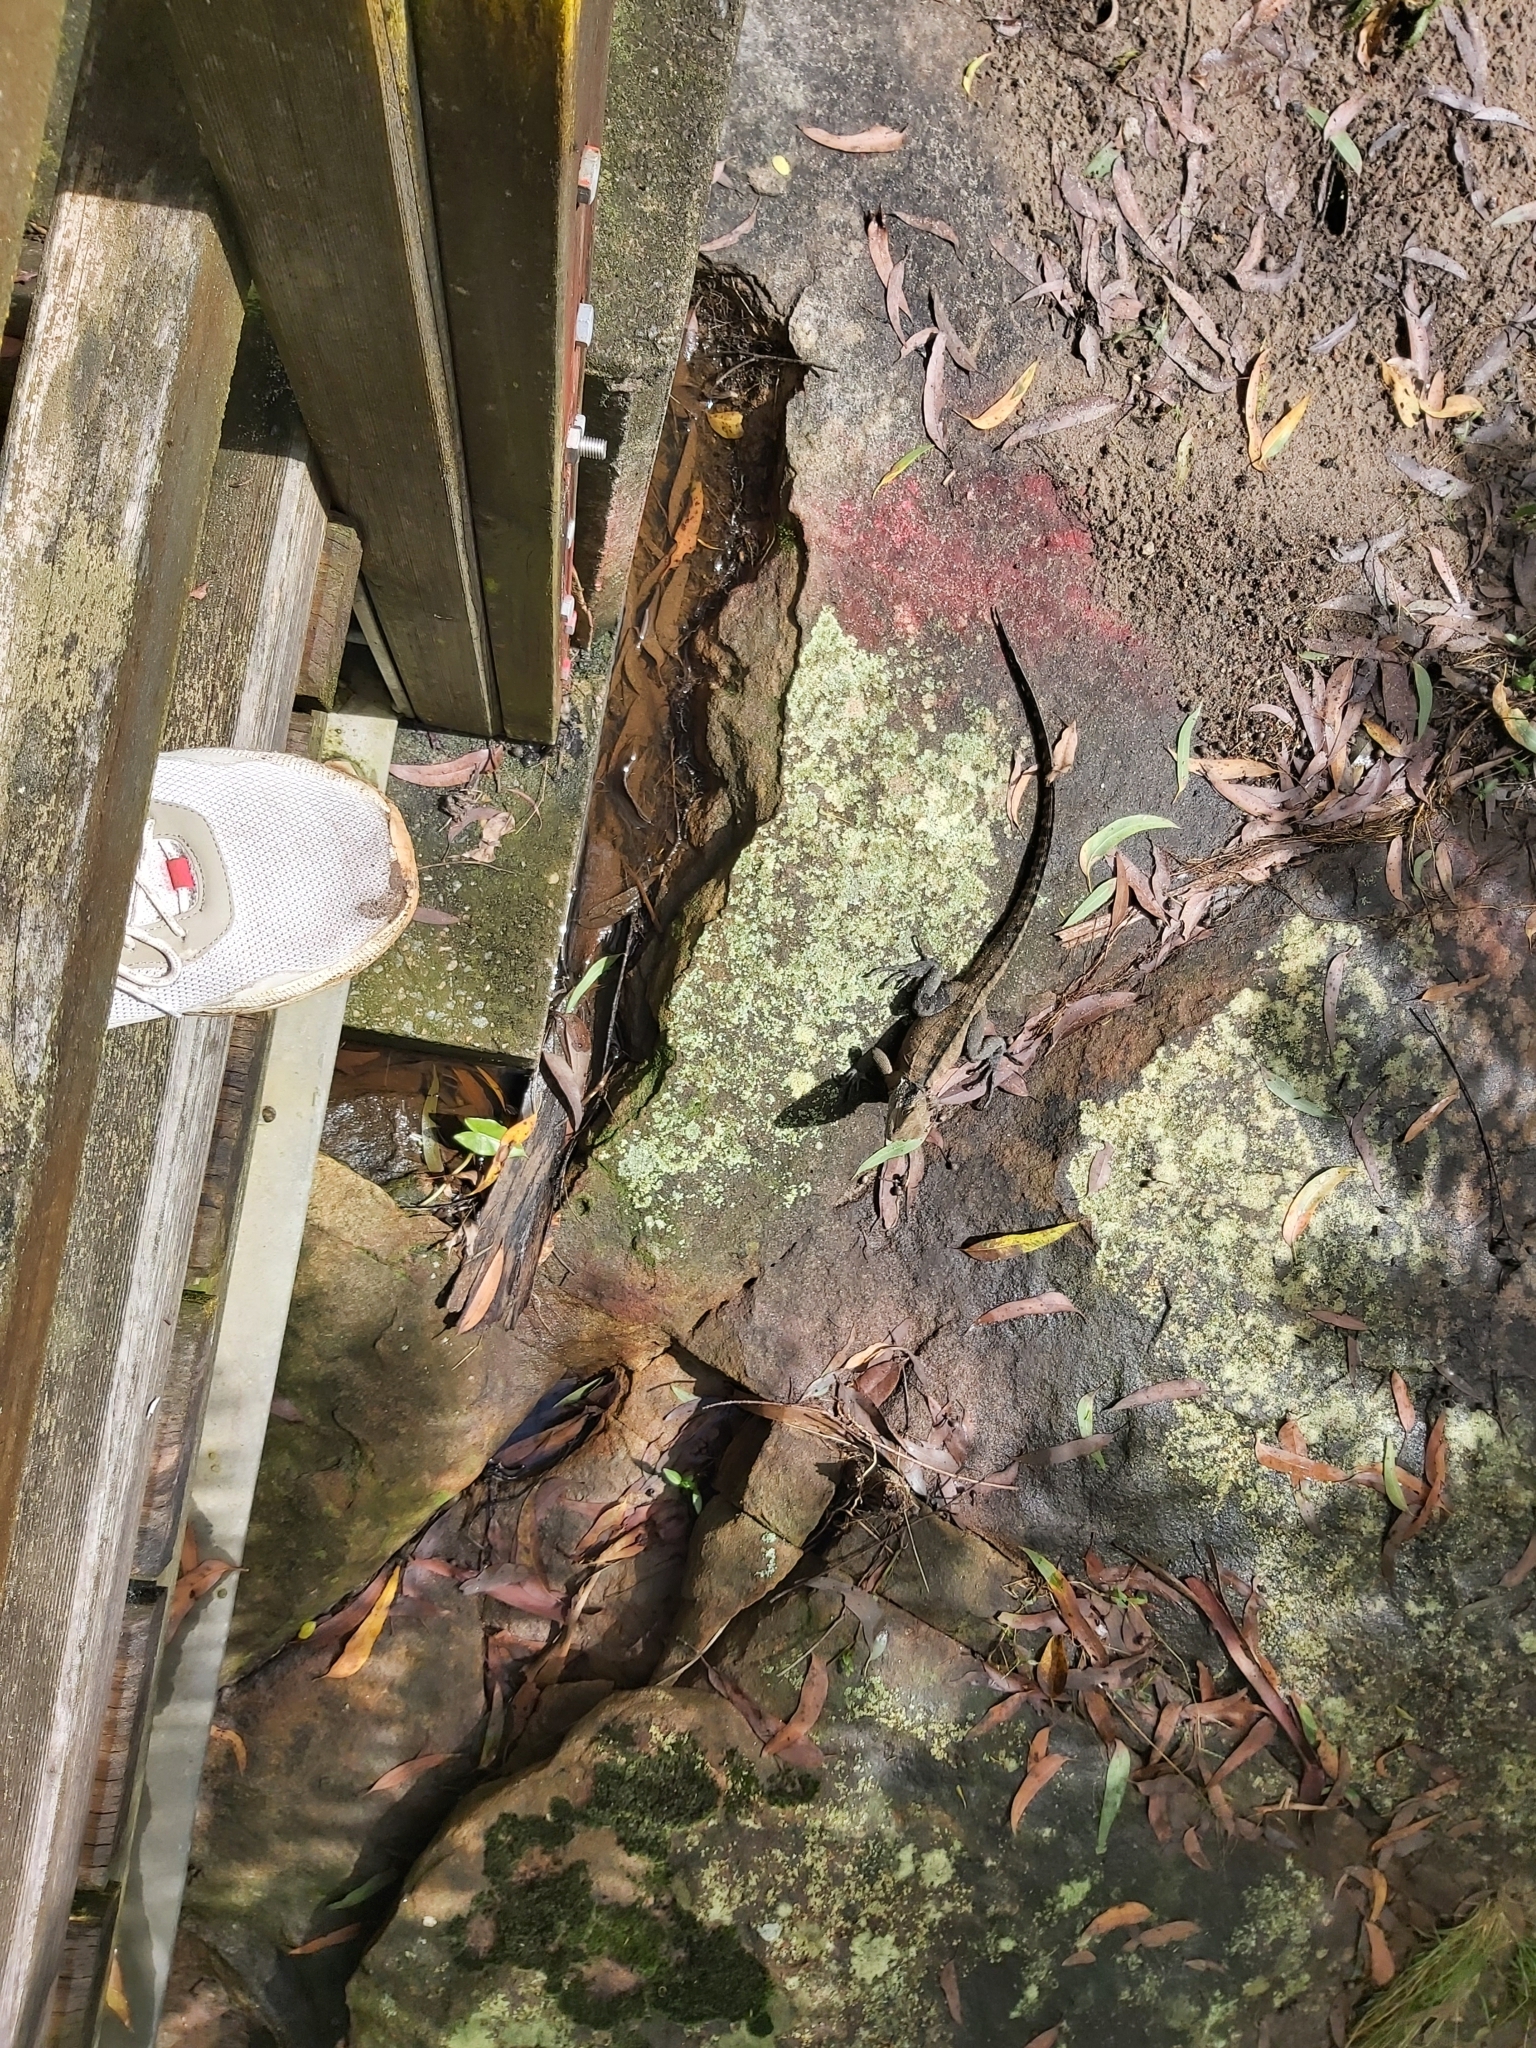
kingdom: Animalia
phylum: Chordata
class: Squamata
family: Agamidae
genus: Intellagama
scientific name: Intellagama lesueurii
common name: Eastern water dragon
